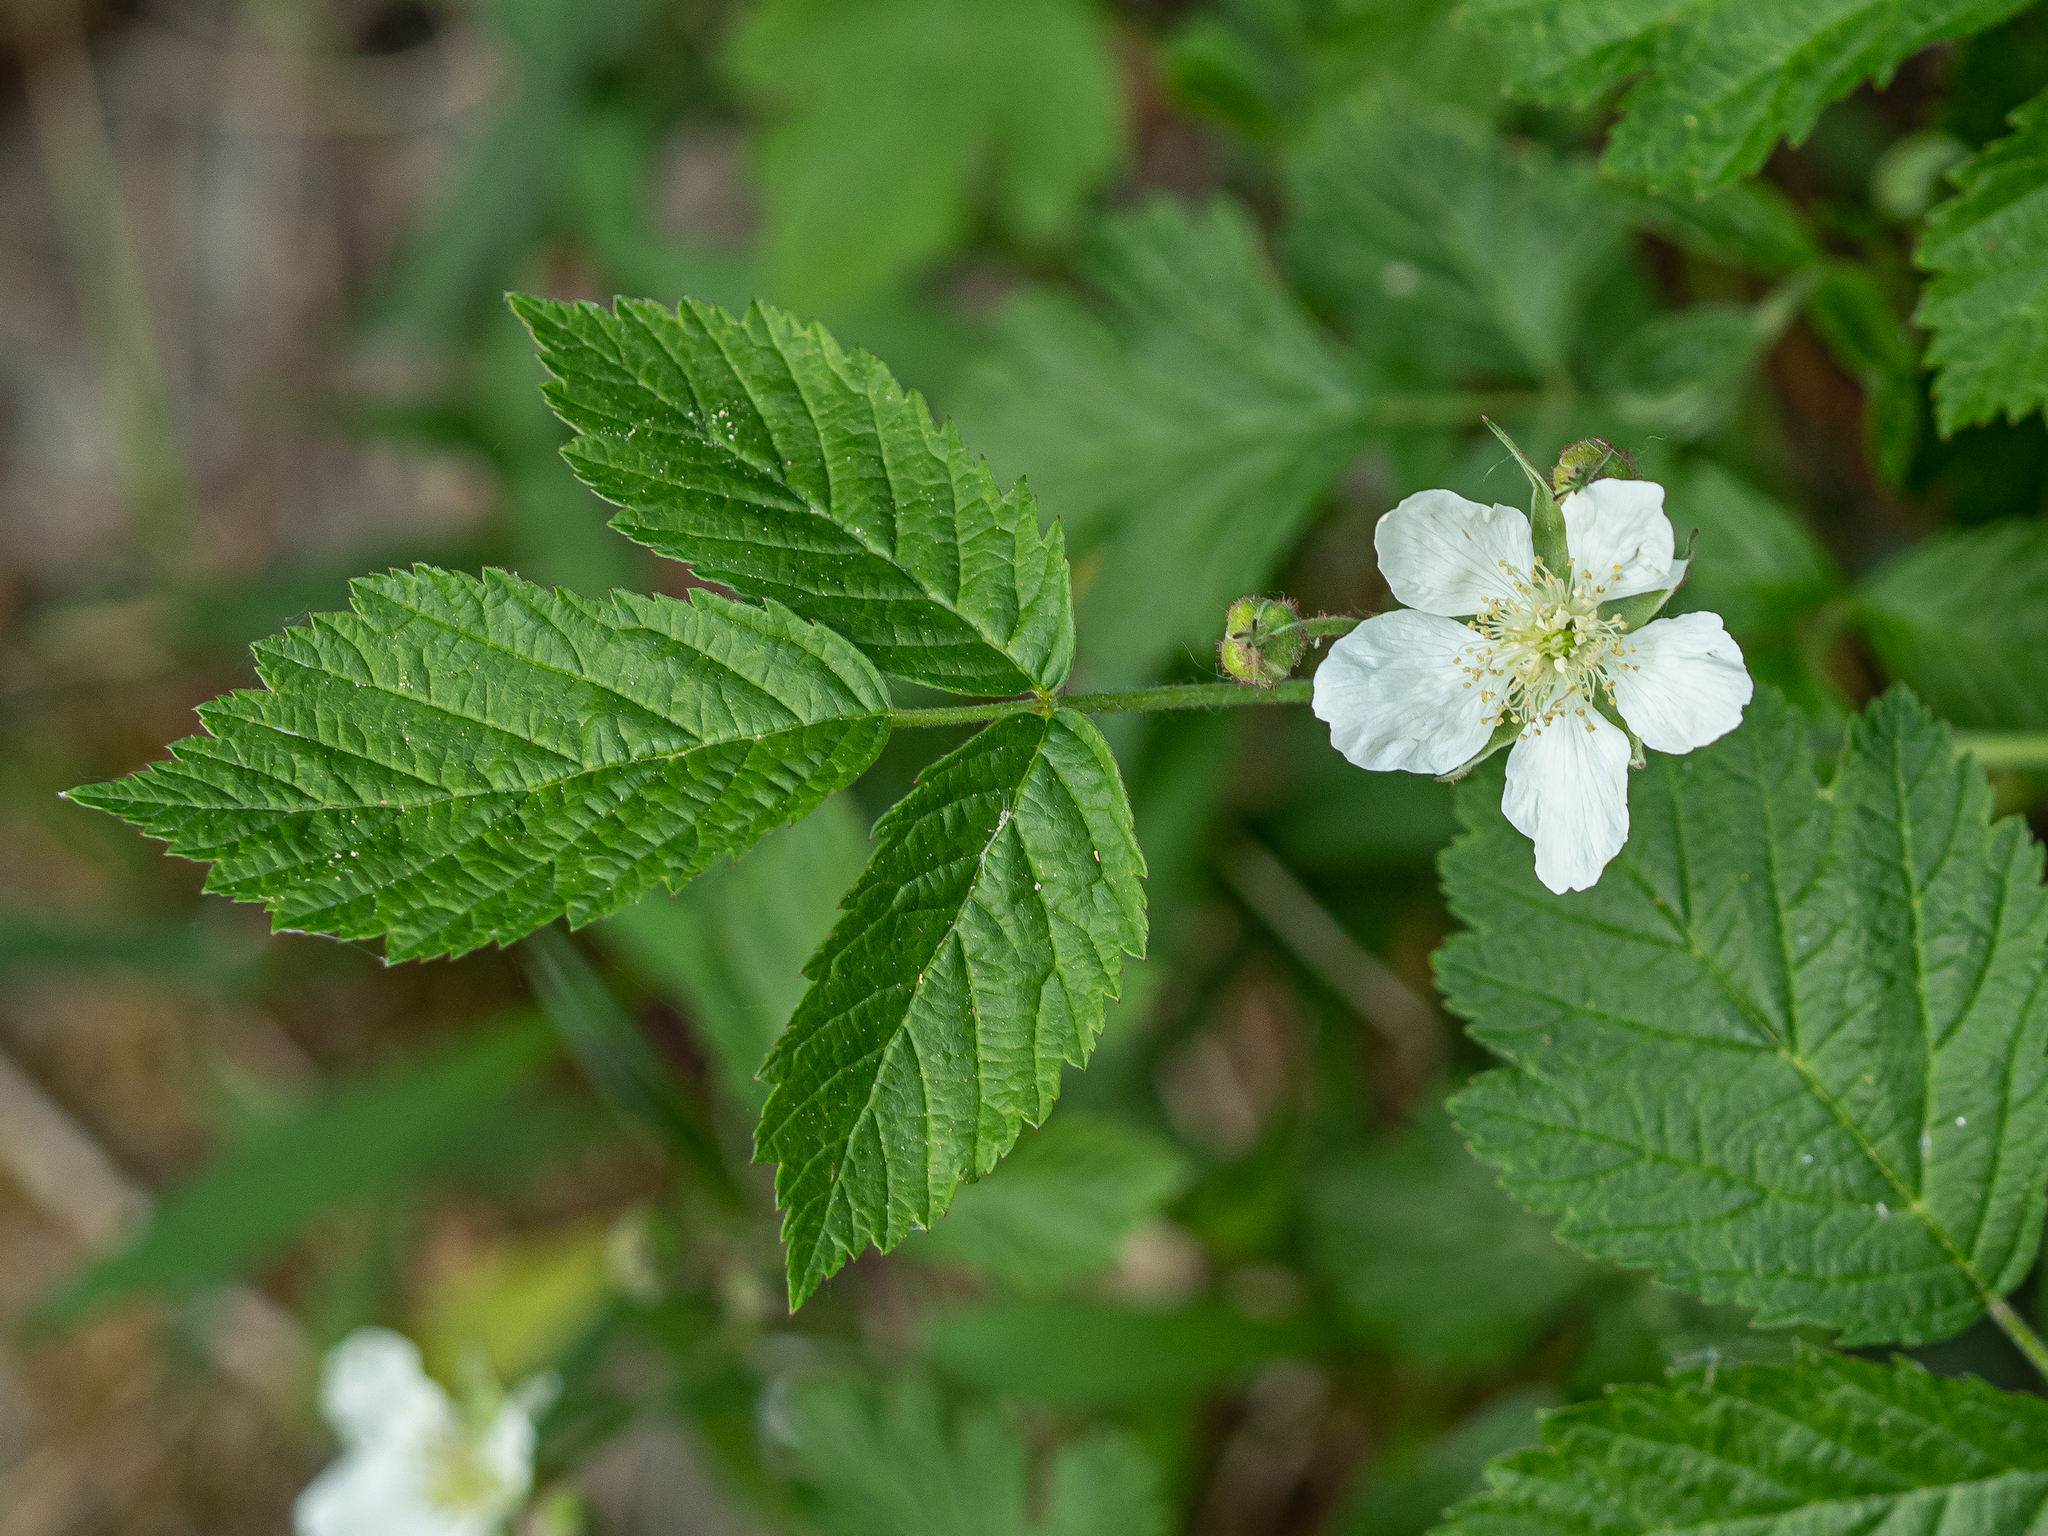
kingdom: Plantae
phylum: Tracheophyta
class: Magnoliopsida
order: Rosales
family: Rosaceae
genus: Rubus
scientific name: Rubus caesius
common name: Dewberry
